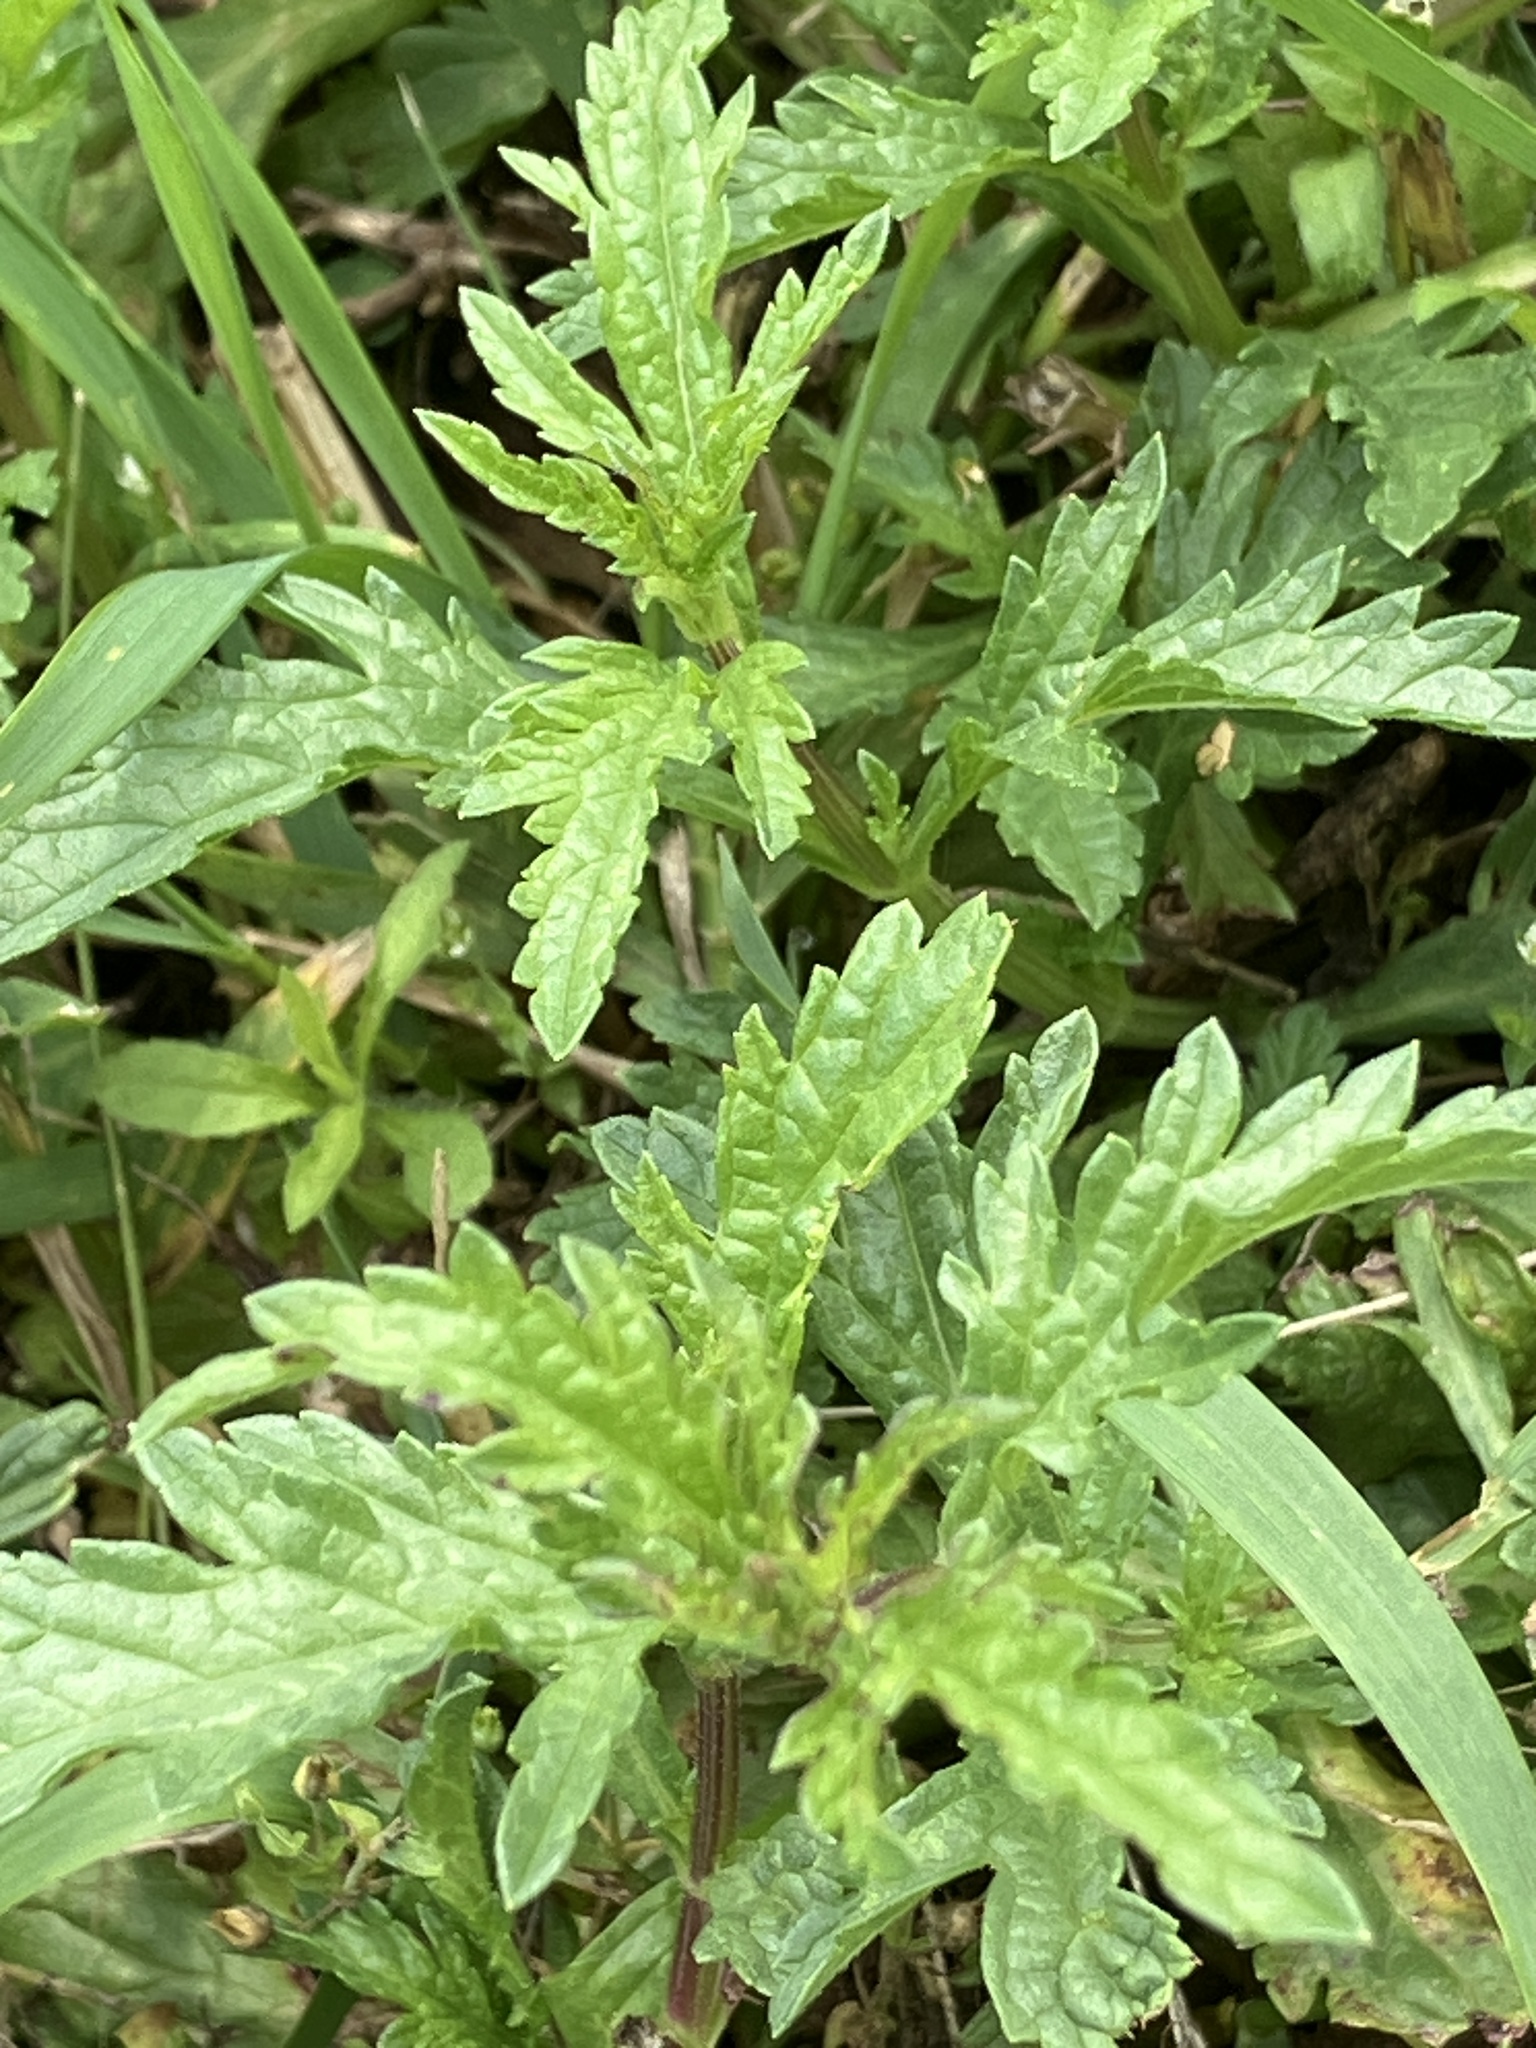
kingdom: Plantae
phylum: Tracheophyta
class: Magnoliopsida
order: Lamiales
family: Verbenaceae
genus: Verbena
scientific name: Verbena officinalis
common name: Vervain
